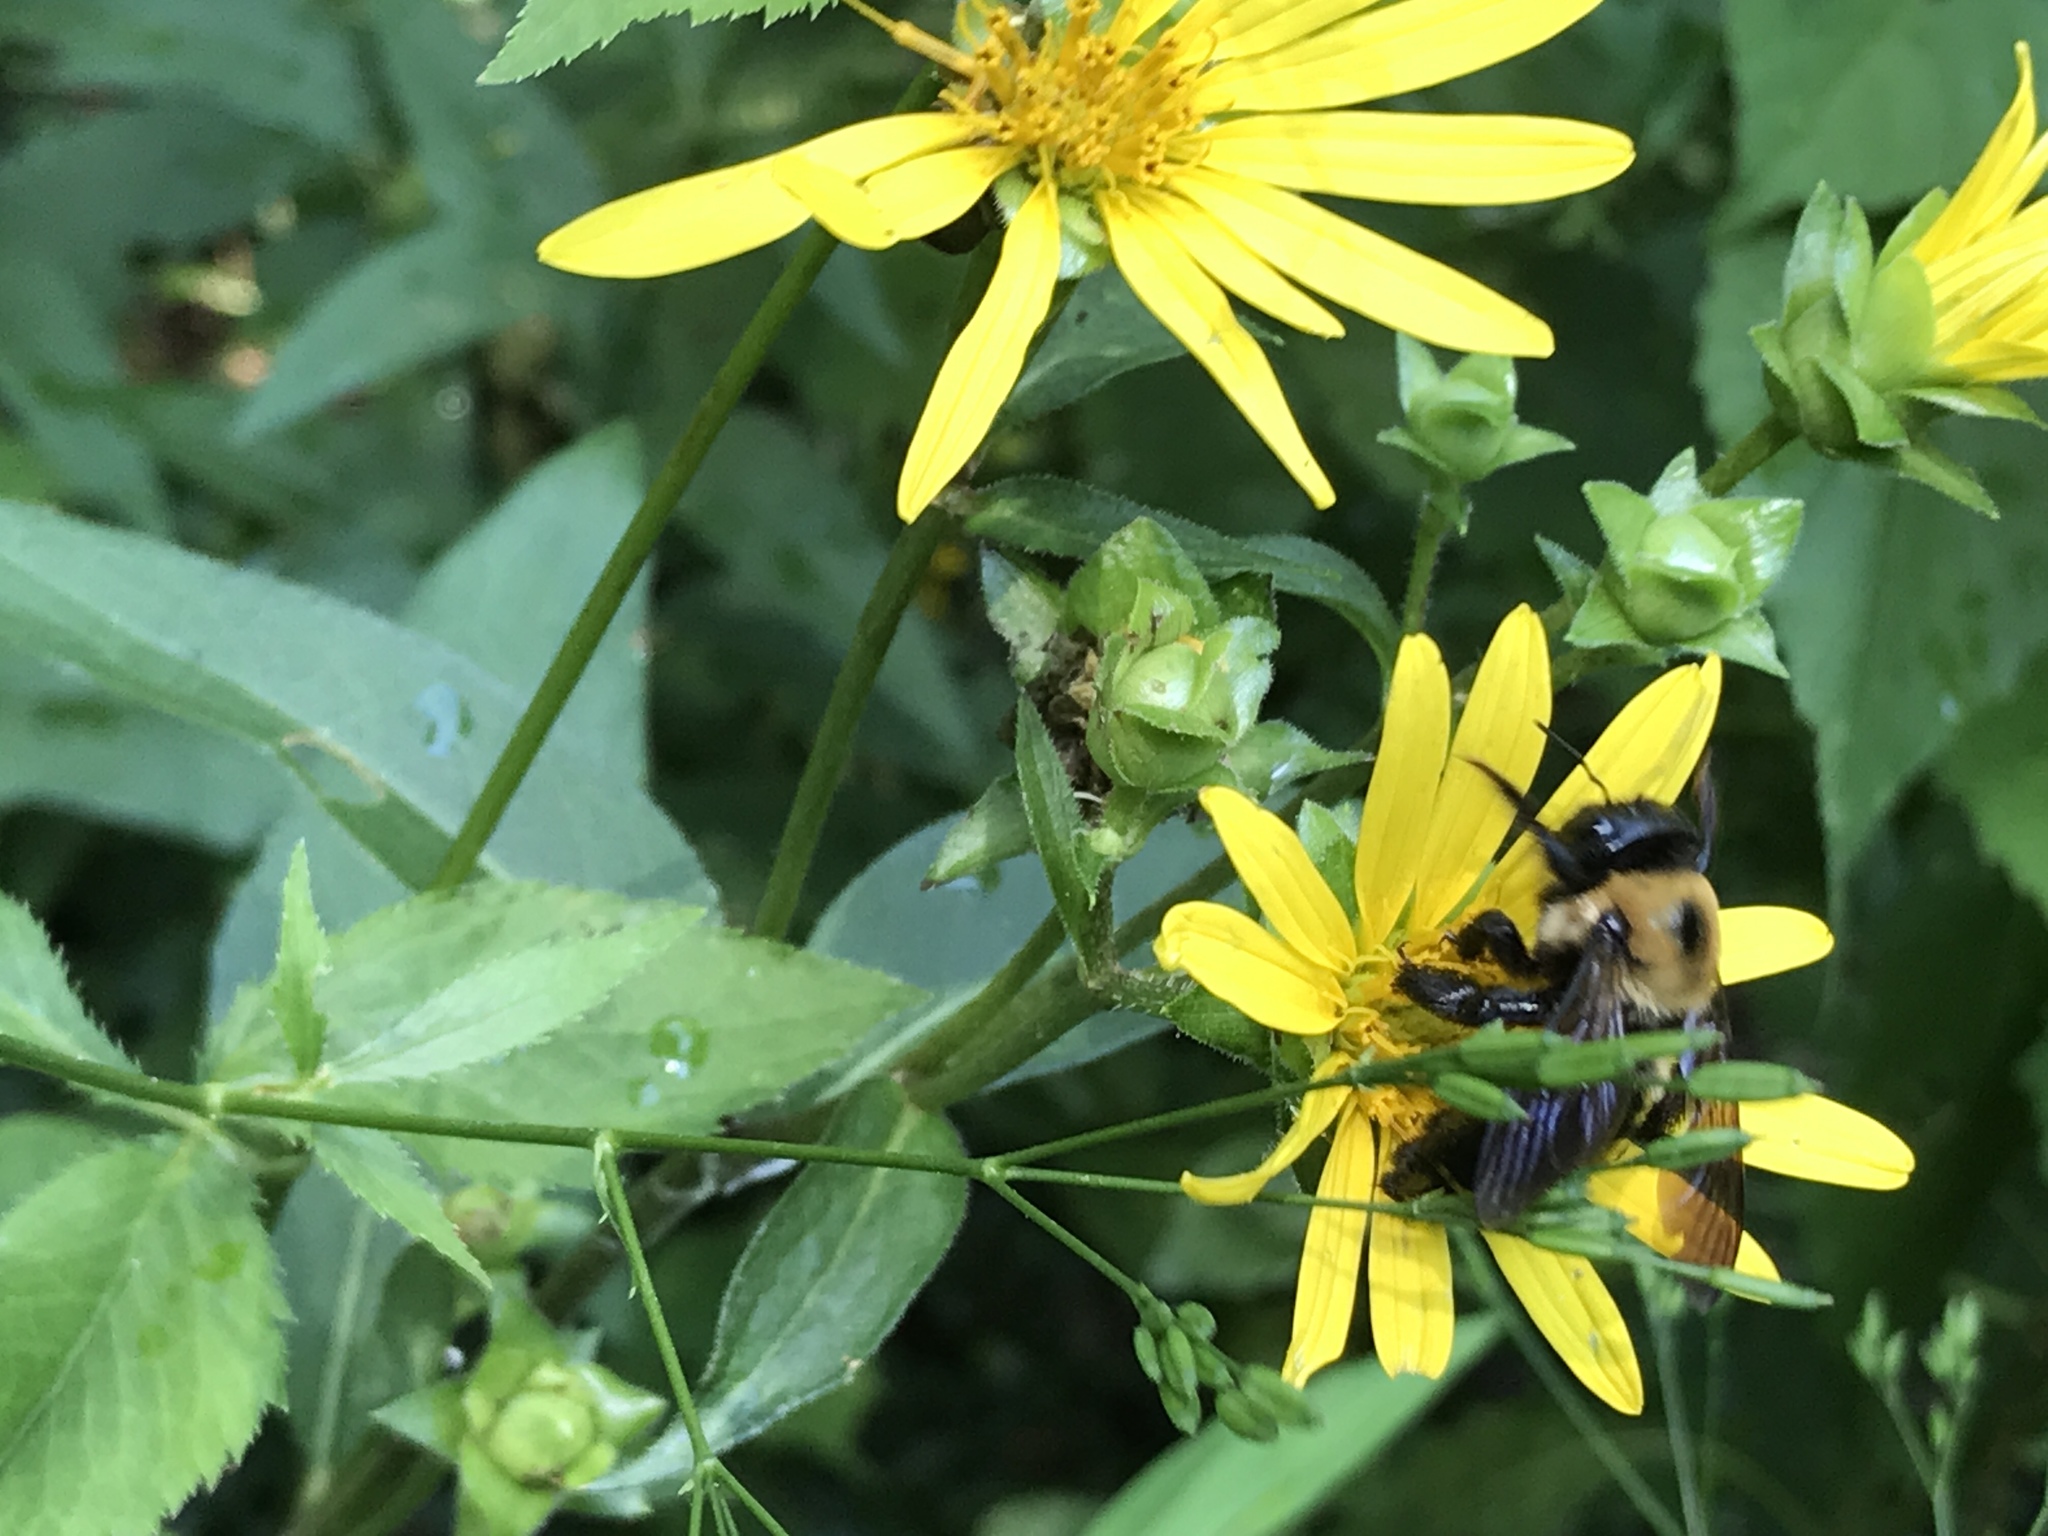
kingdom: Animalia
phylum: Arthropoda
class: Insecta
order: Hymenoptera
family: Apidae
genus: Xylocopa
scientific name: Xylocopa virginica
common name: Carpenter bee
